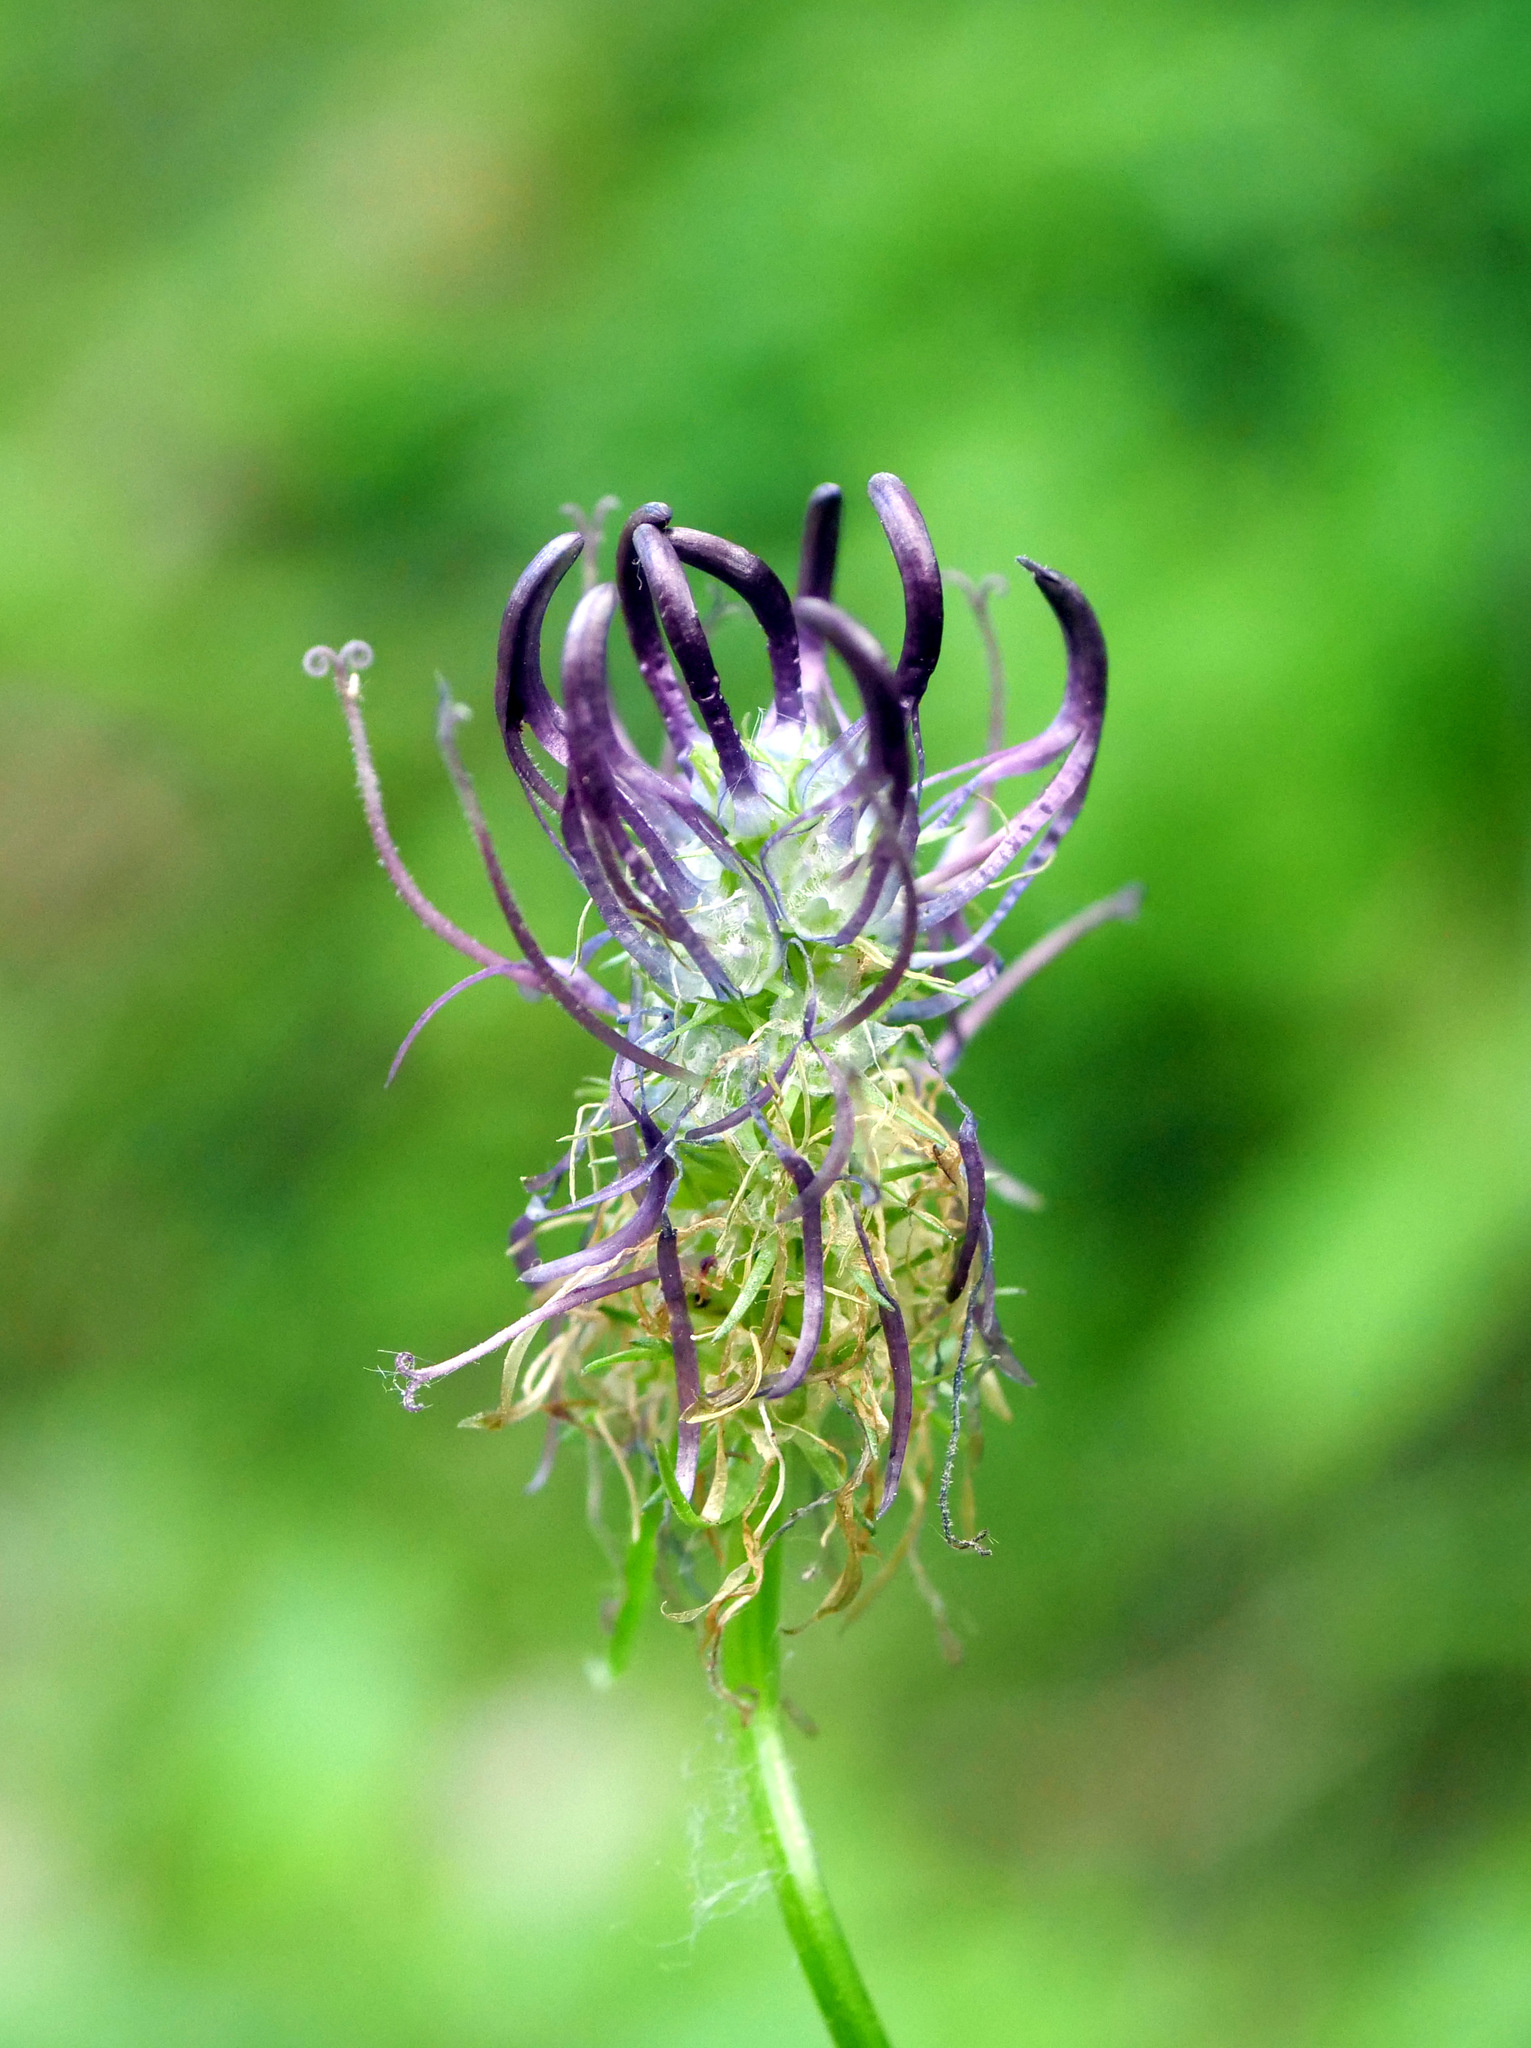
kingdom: Plantae
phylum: Tracheophyta
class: Magnoliopsida
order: Asterales
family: Campanulaceae
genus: Phyteuma
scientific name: Phyteuma nigrum
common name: Black rampion
